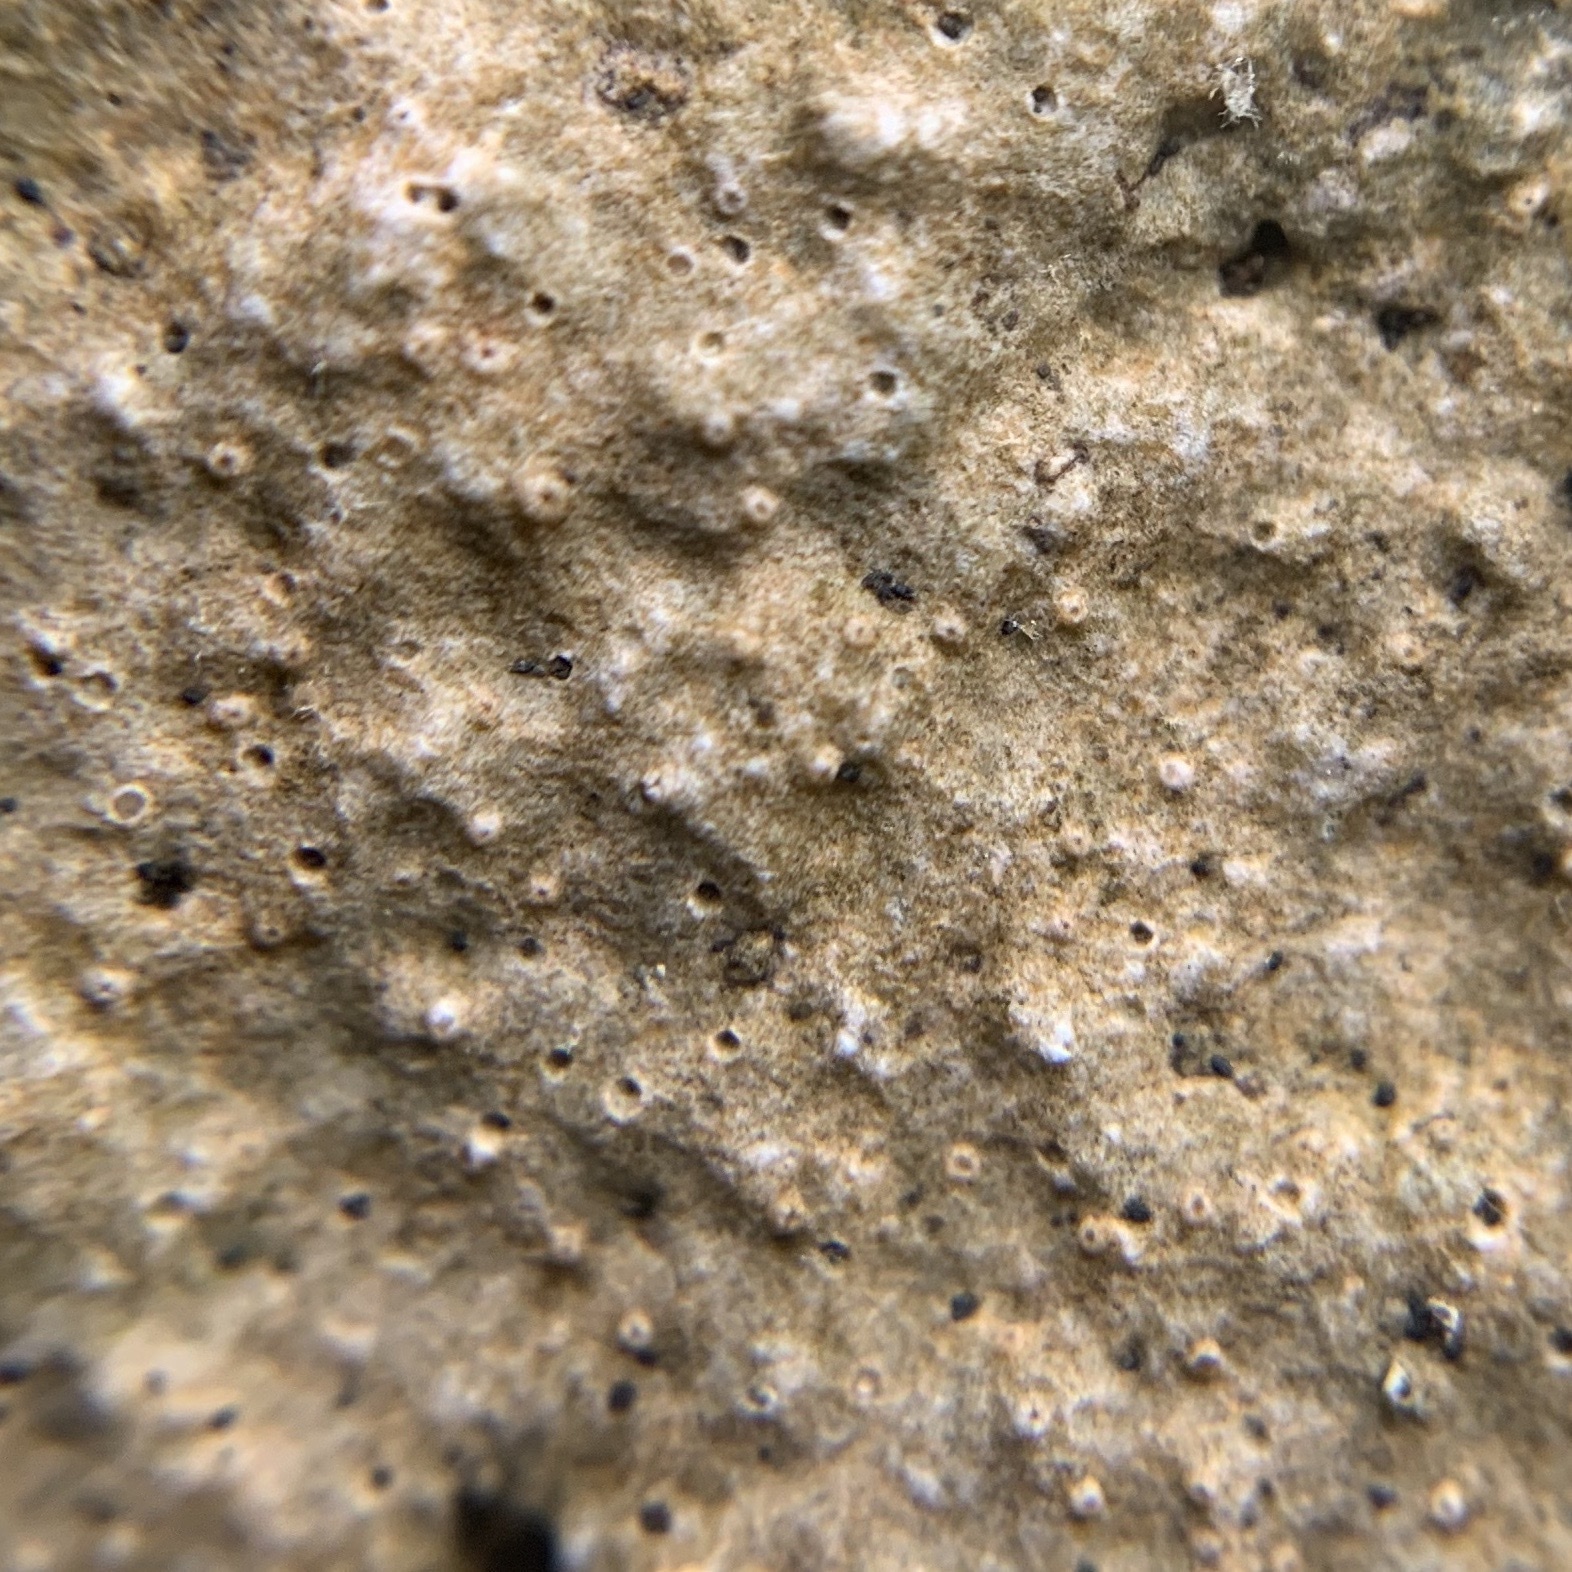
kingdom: Fungi
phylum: Ascomycota
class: Lecanoromycetes
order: Ostropales
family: Stictidaceae
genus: Petractis
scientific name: Petractis farlowii
